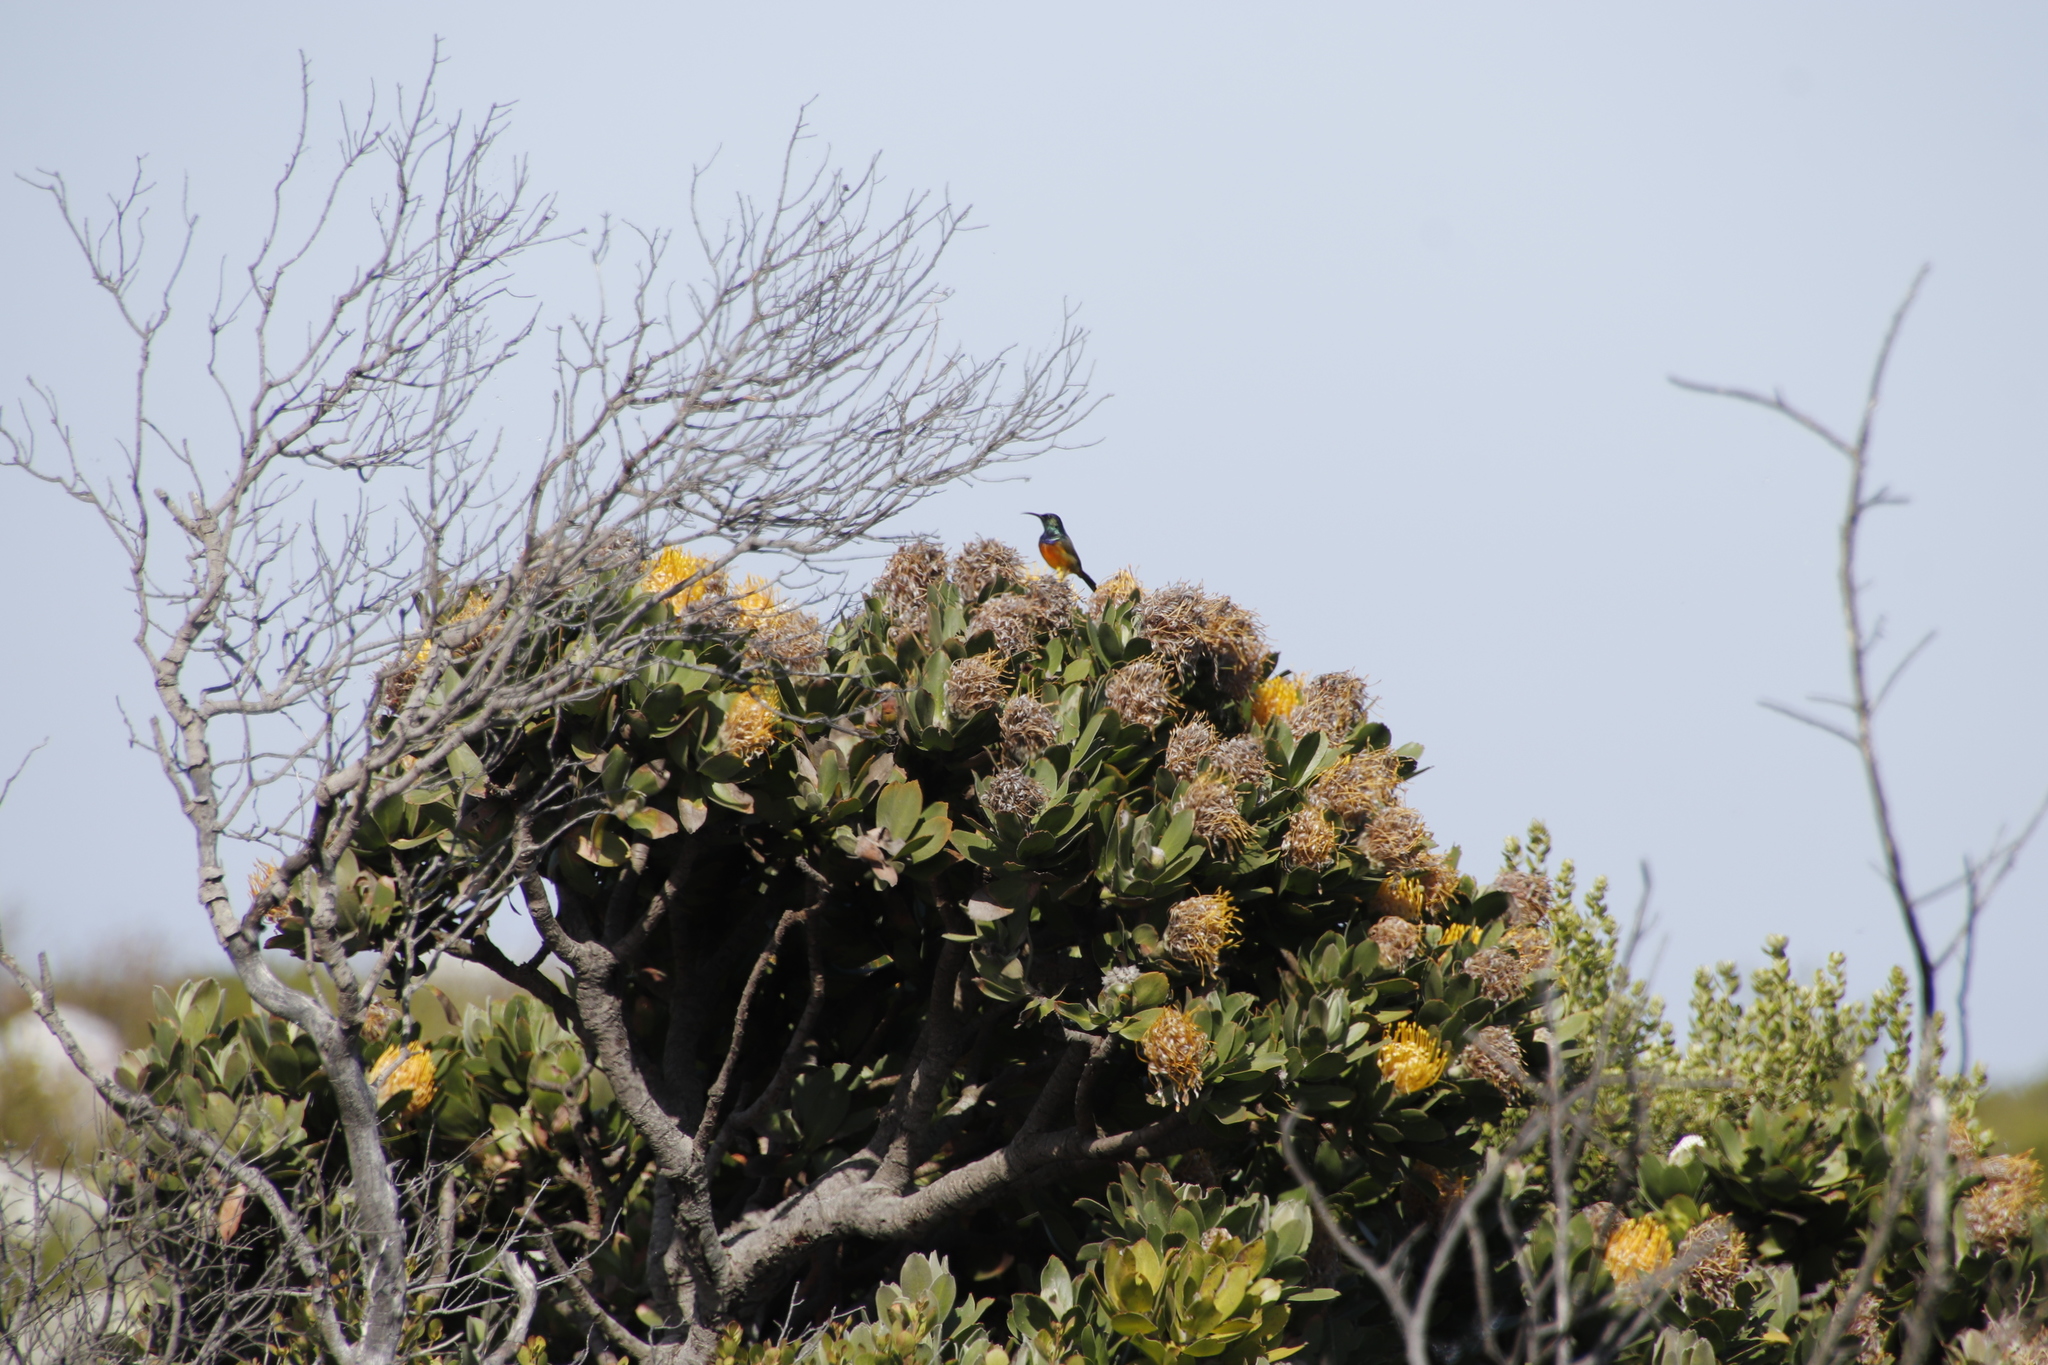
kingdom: Animalia
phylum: Chordata
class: Aves
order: Passeriformes
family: Nectariniidae
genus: Anthobaphes
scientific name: Anthobaphes violacea
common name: Orange-breasted sunbird
